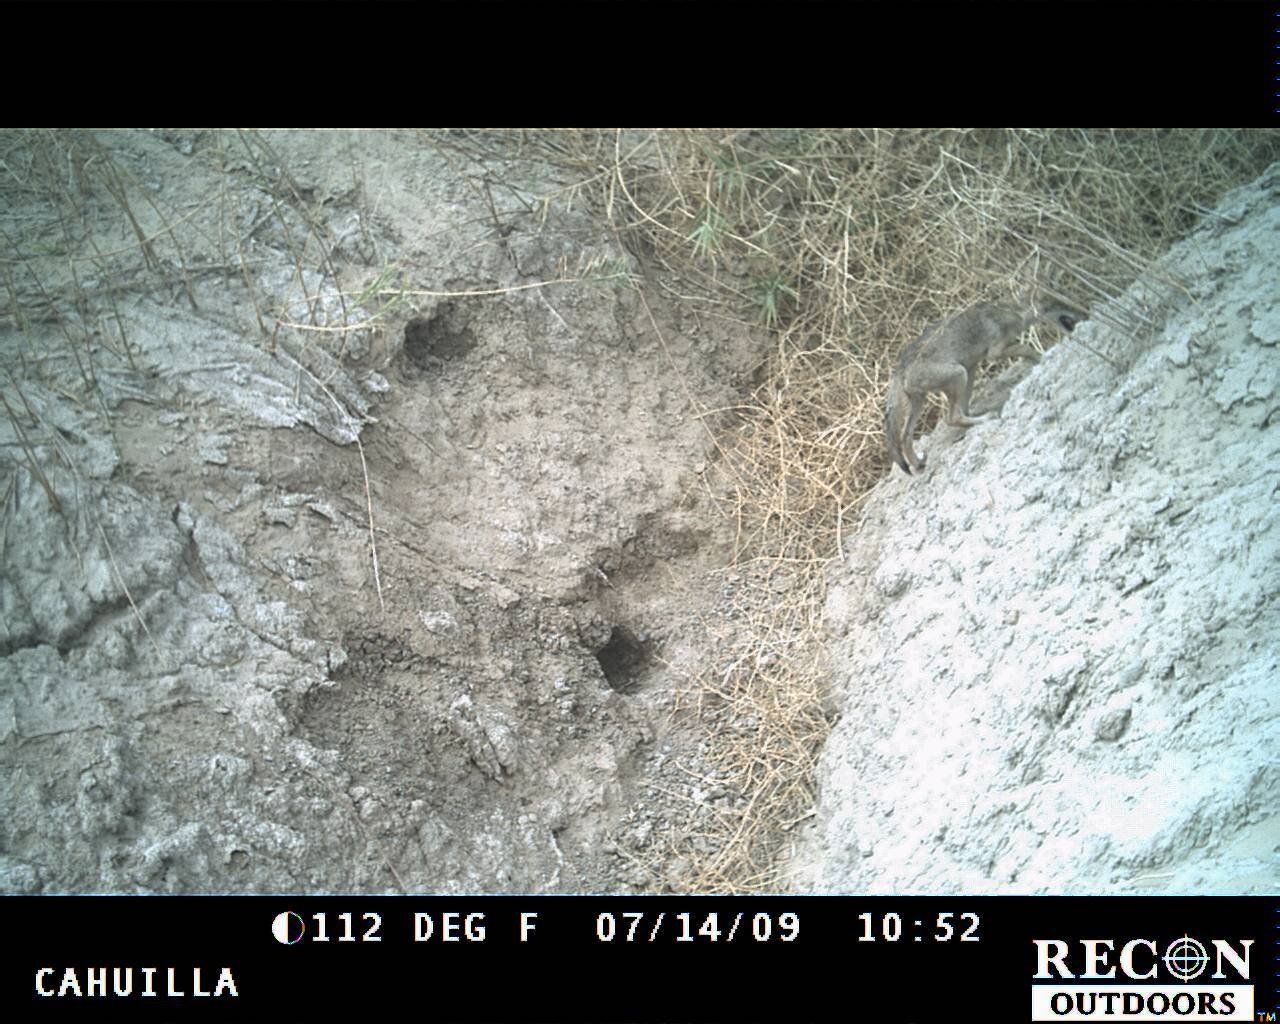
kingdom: Animalia
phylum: Chordata
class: Mammalia
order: Carnivora
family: Canidae
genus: Canis
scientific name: Canis latrans
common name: Coyote
